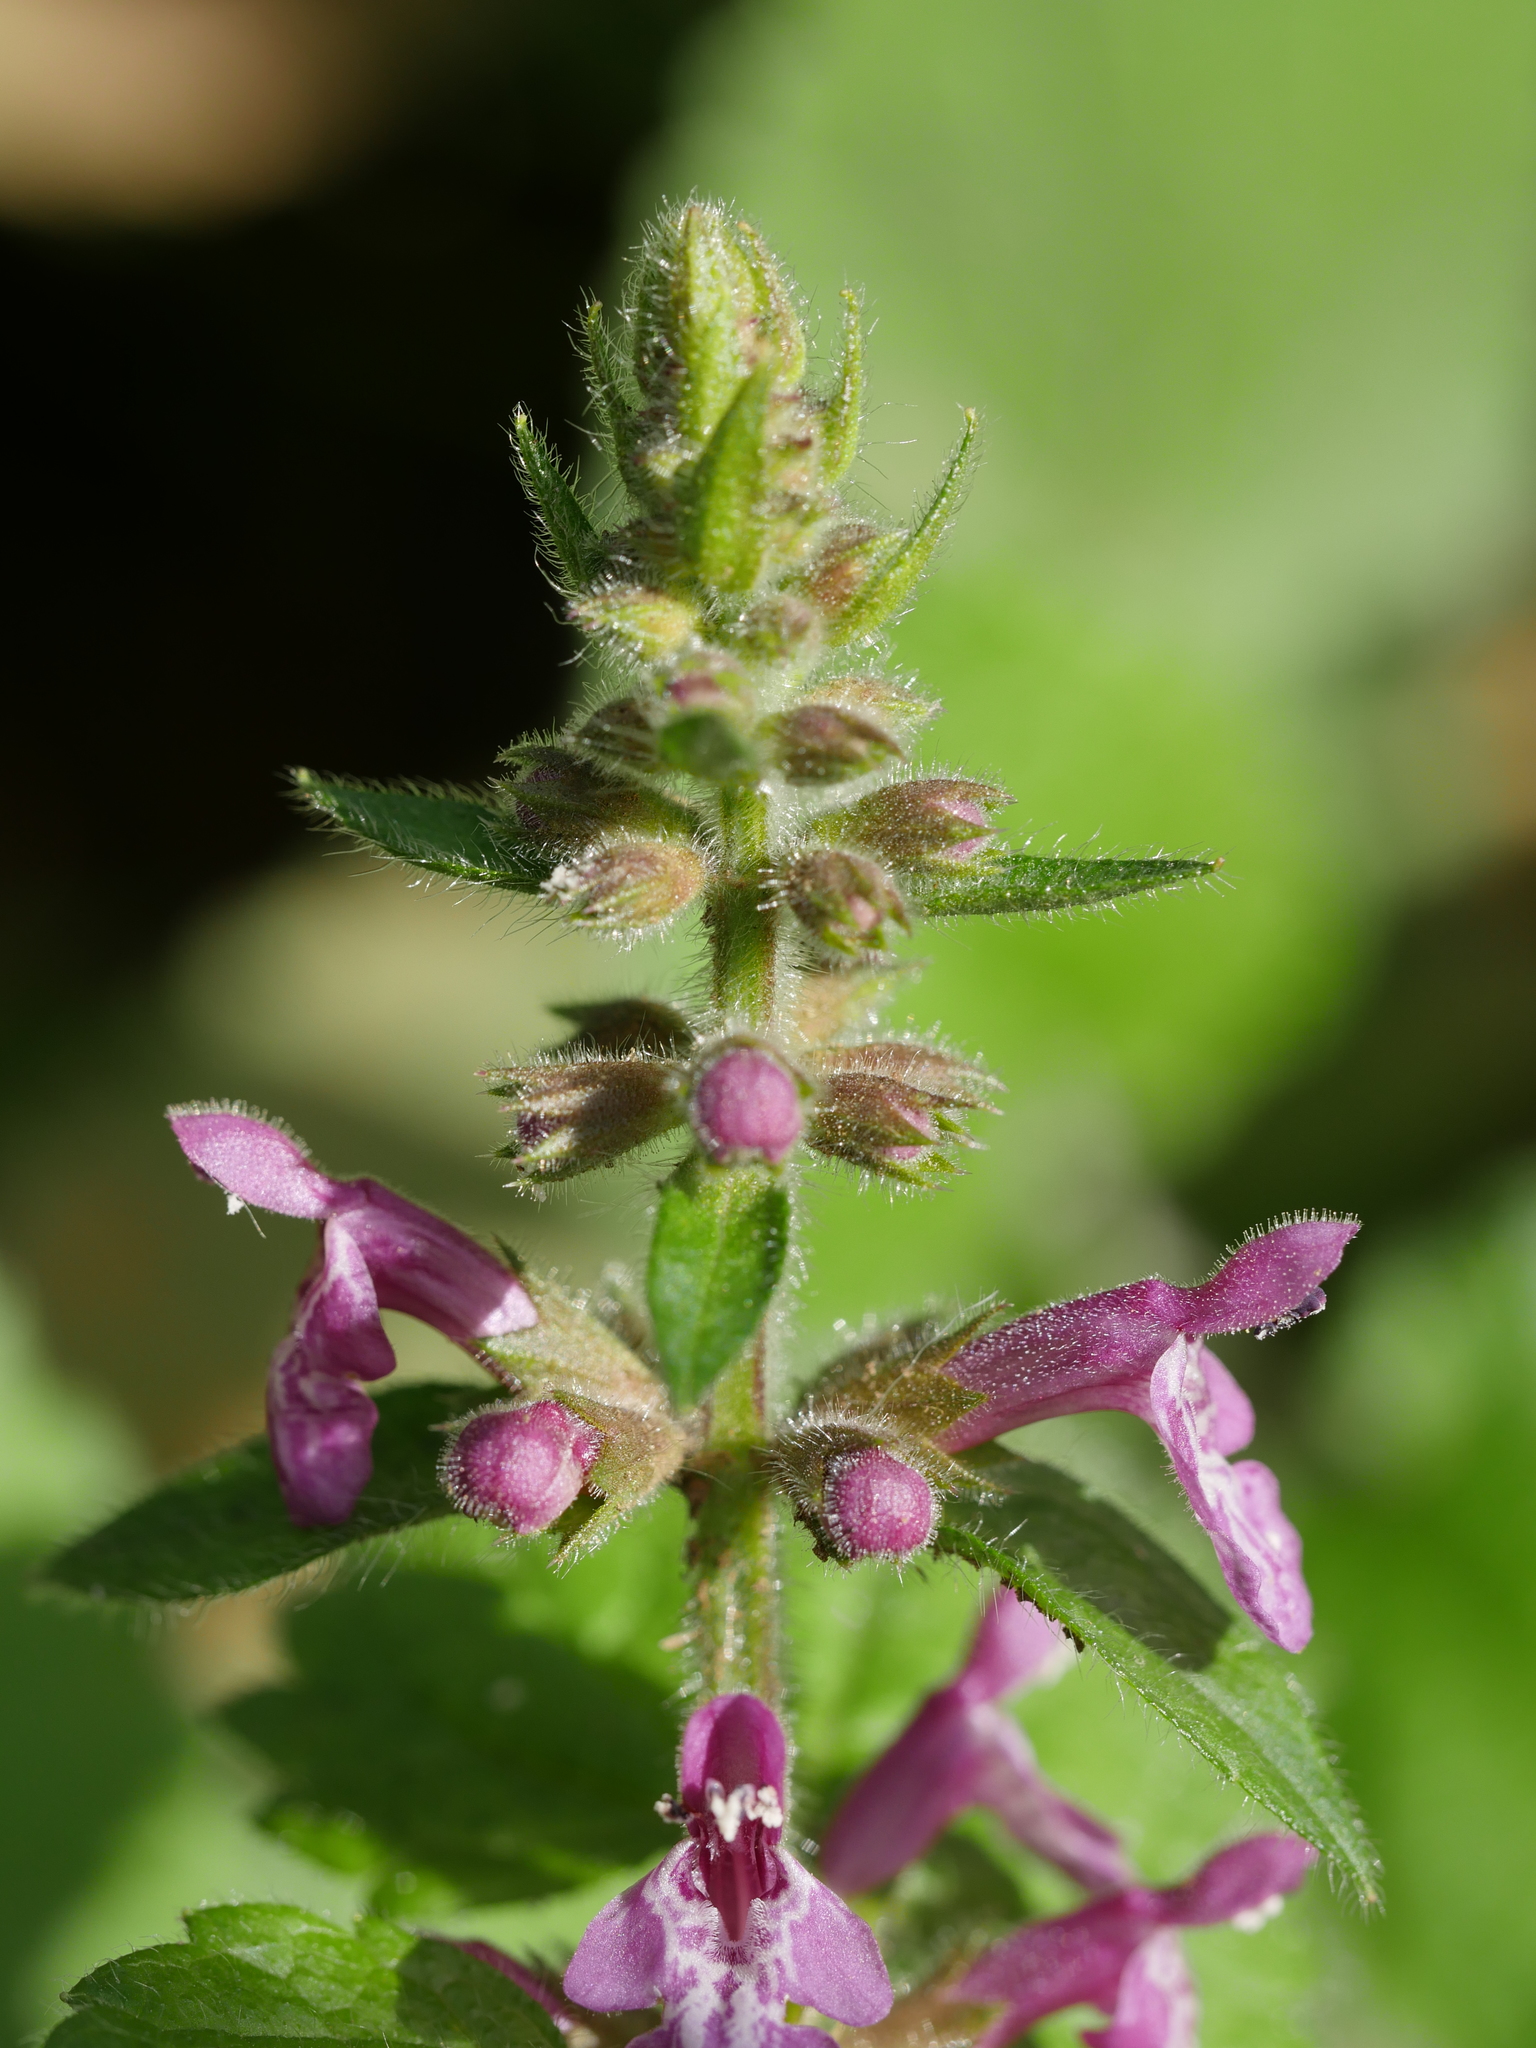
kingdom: Plantae
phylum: Tracheophyta
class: Magnoliopsida
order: Lamiales
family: Lamiaceae
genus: Stachys
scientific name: Stachys sylvatica
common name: Hedge woundwort
